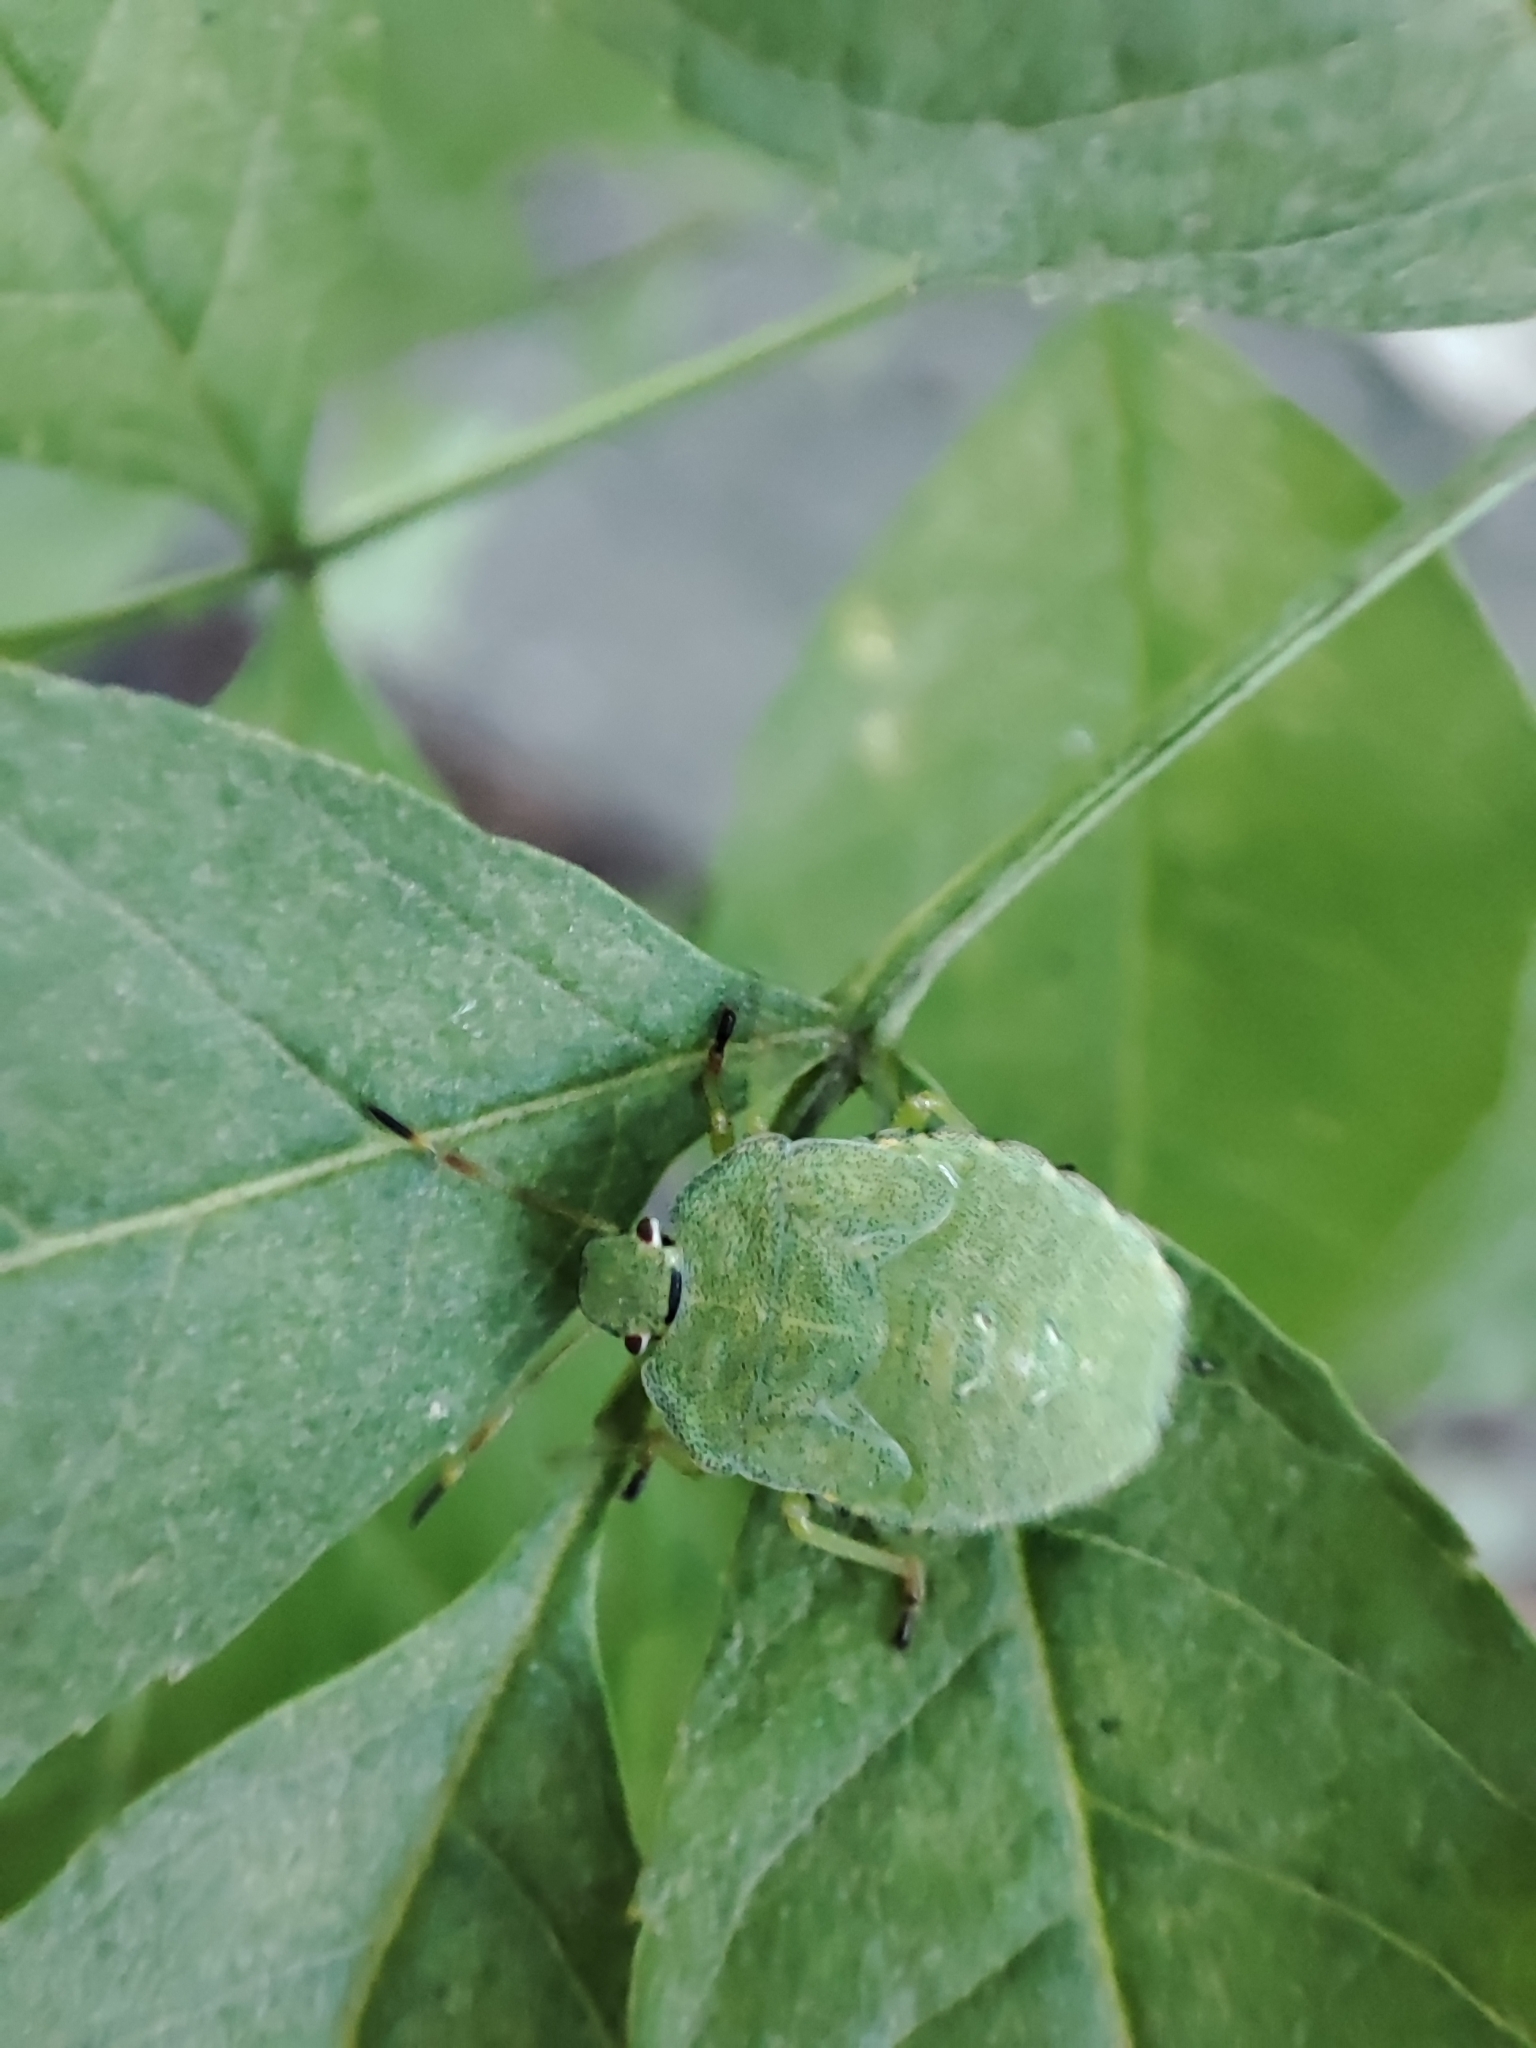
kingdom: Animalia
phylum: Arthropoda
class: Insecta
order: Hemiptera
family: Pentatomidae
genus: Palomena
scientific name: Palomena prasina
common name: Green shieldbug
